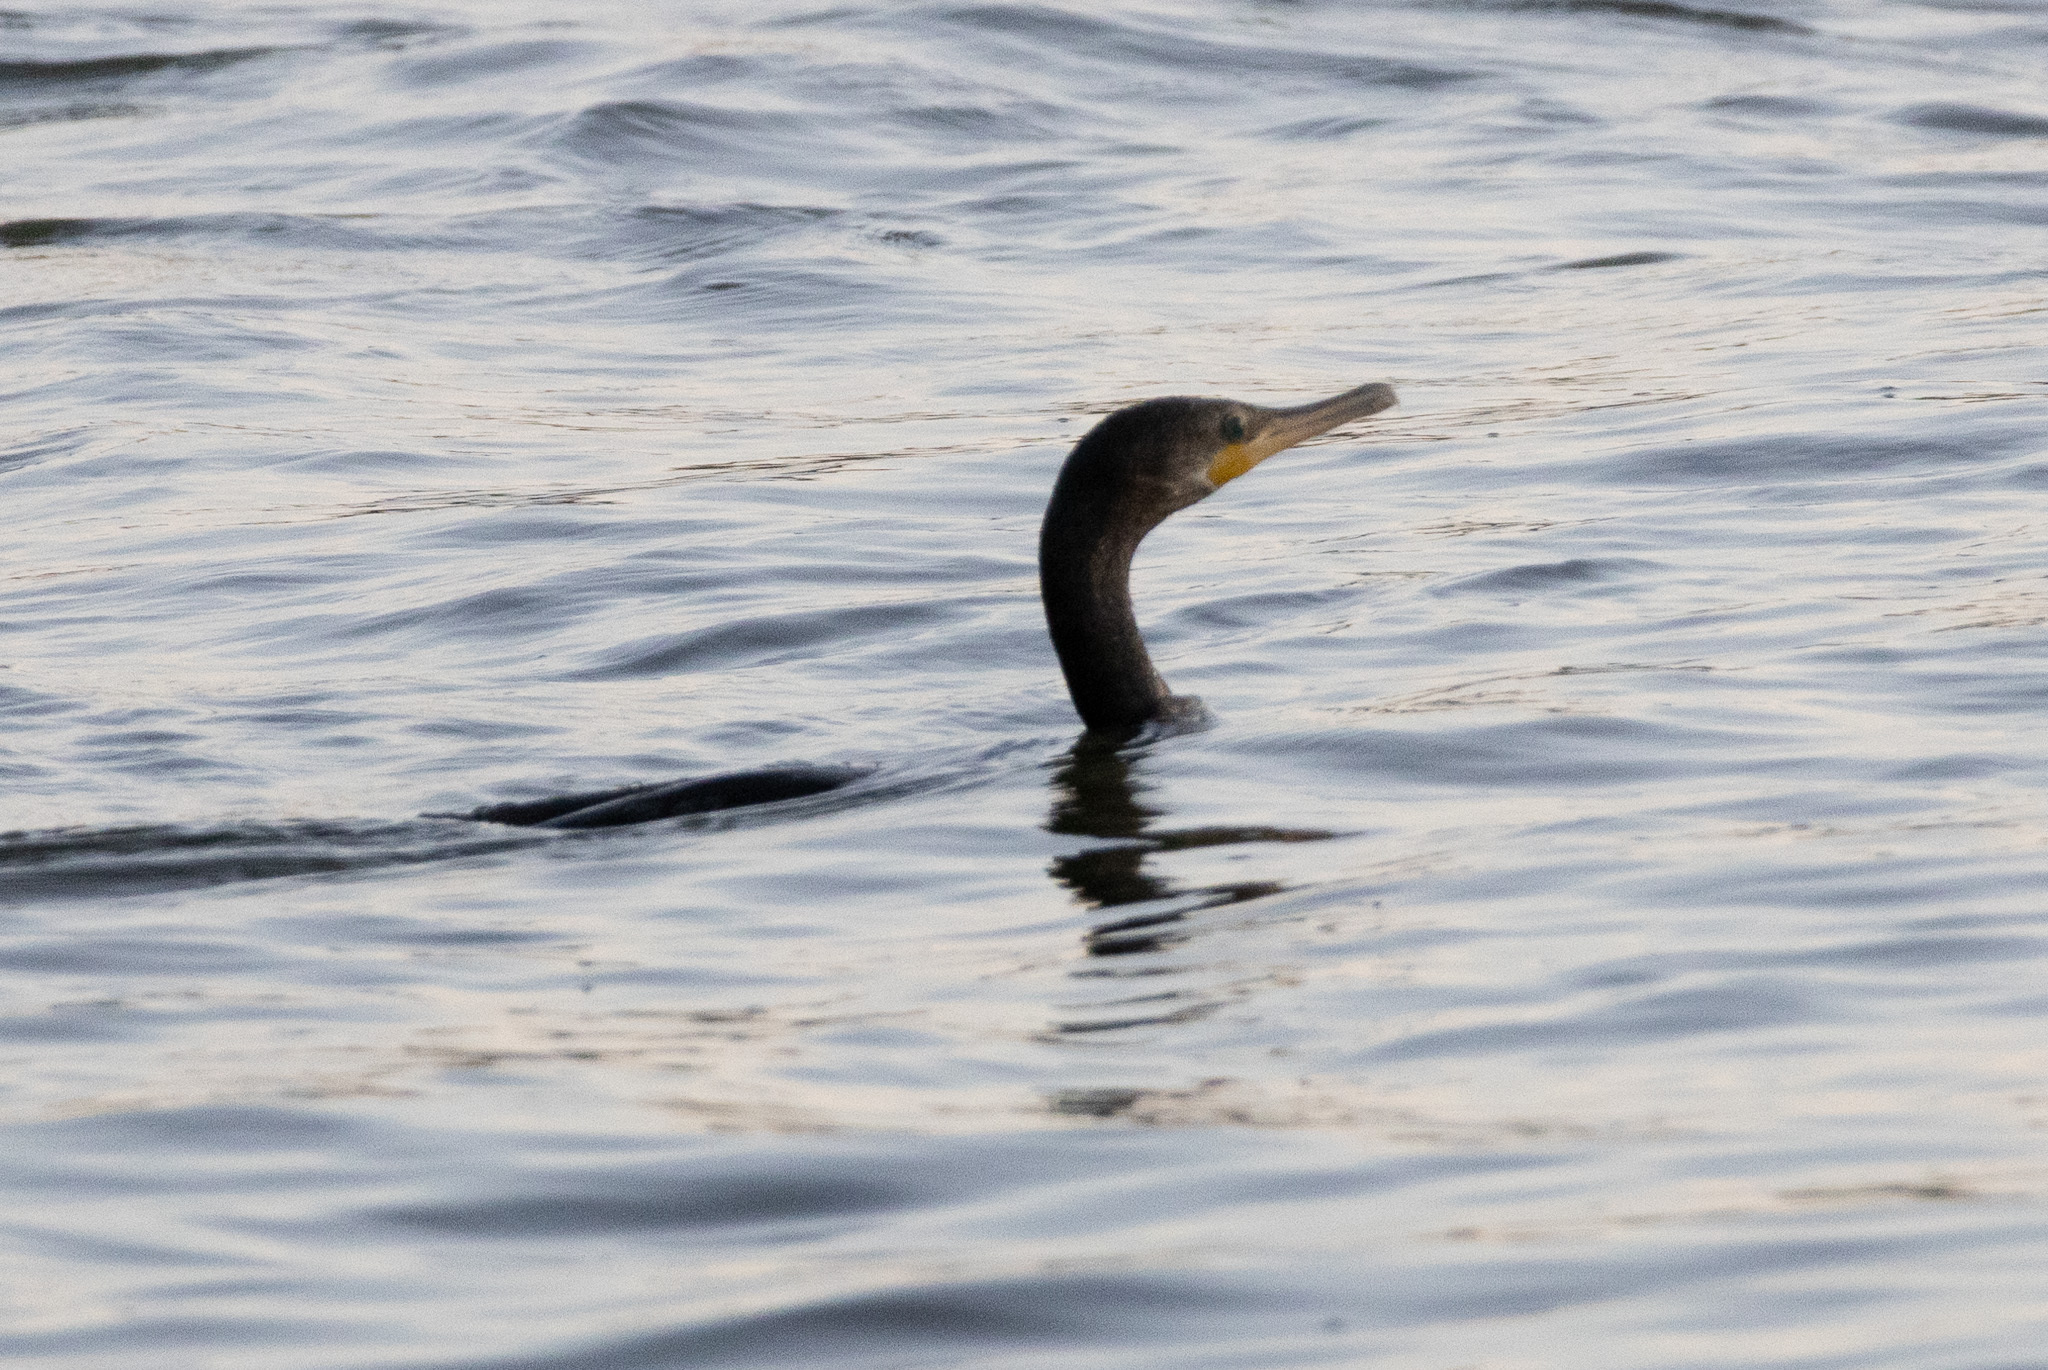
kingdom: Animalia
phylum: Chordata
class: Aves
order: Suliformes
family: Phalacrocoracidae
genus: Phalacrocorax
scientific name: Phalacrocorax brasilianus
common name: Neotropic cormorant
